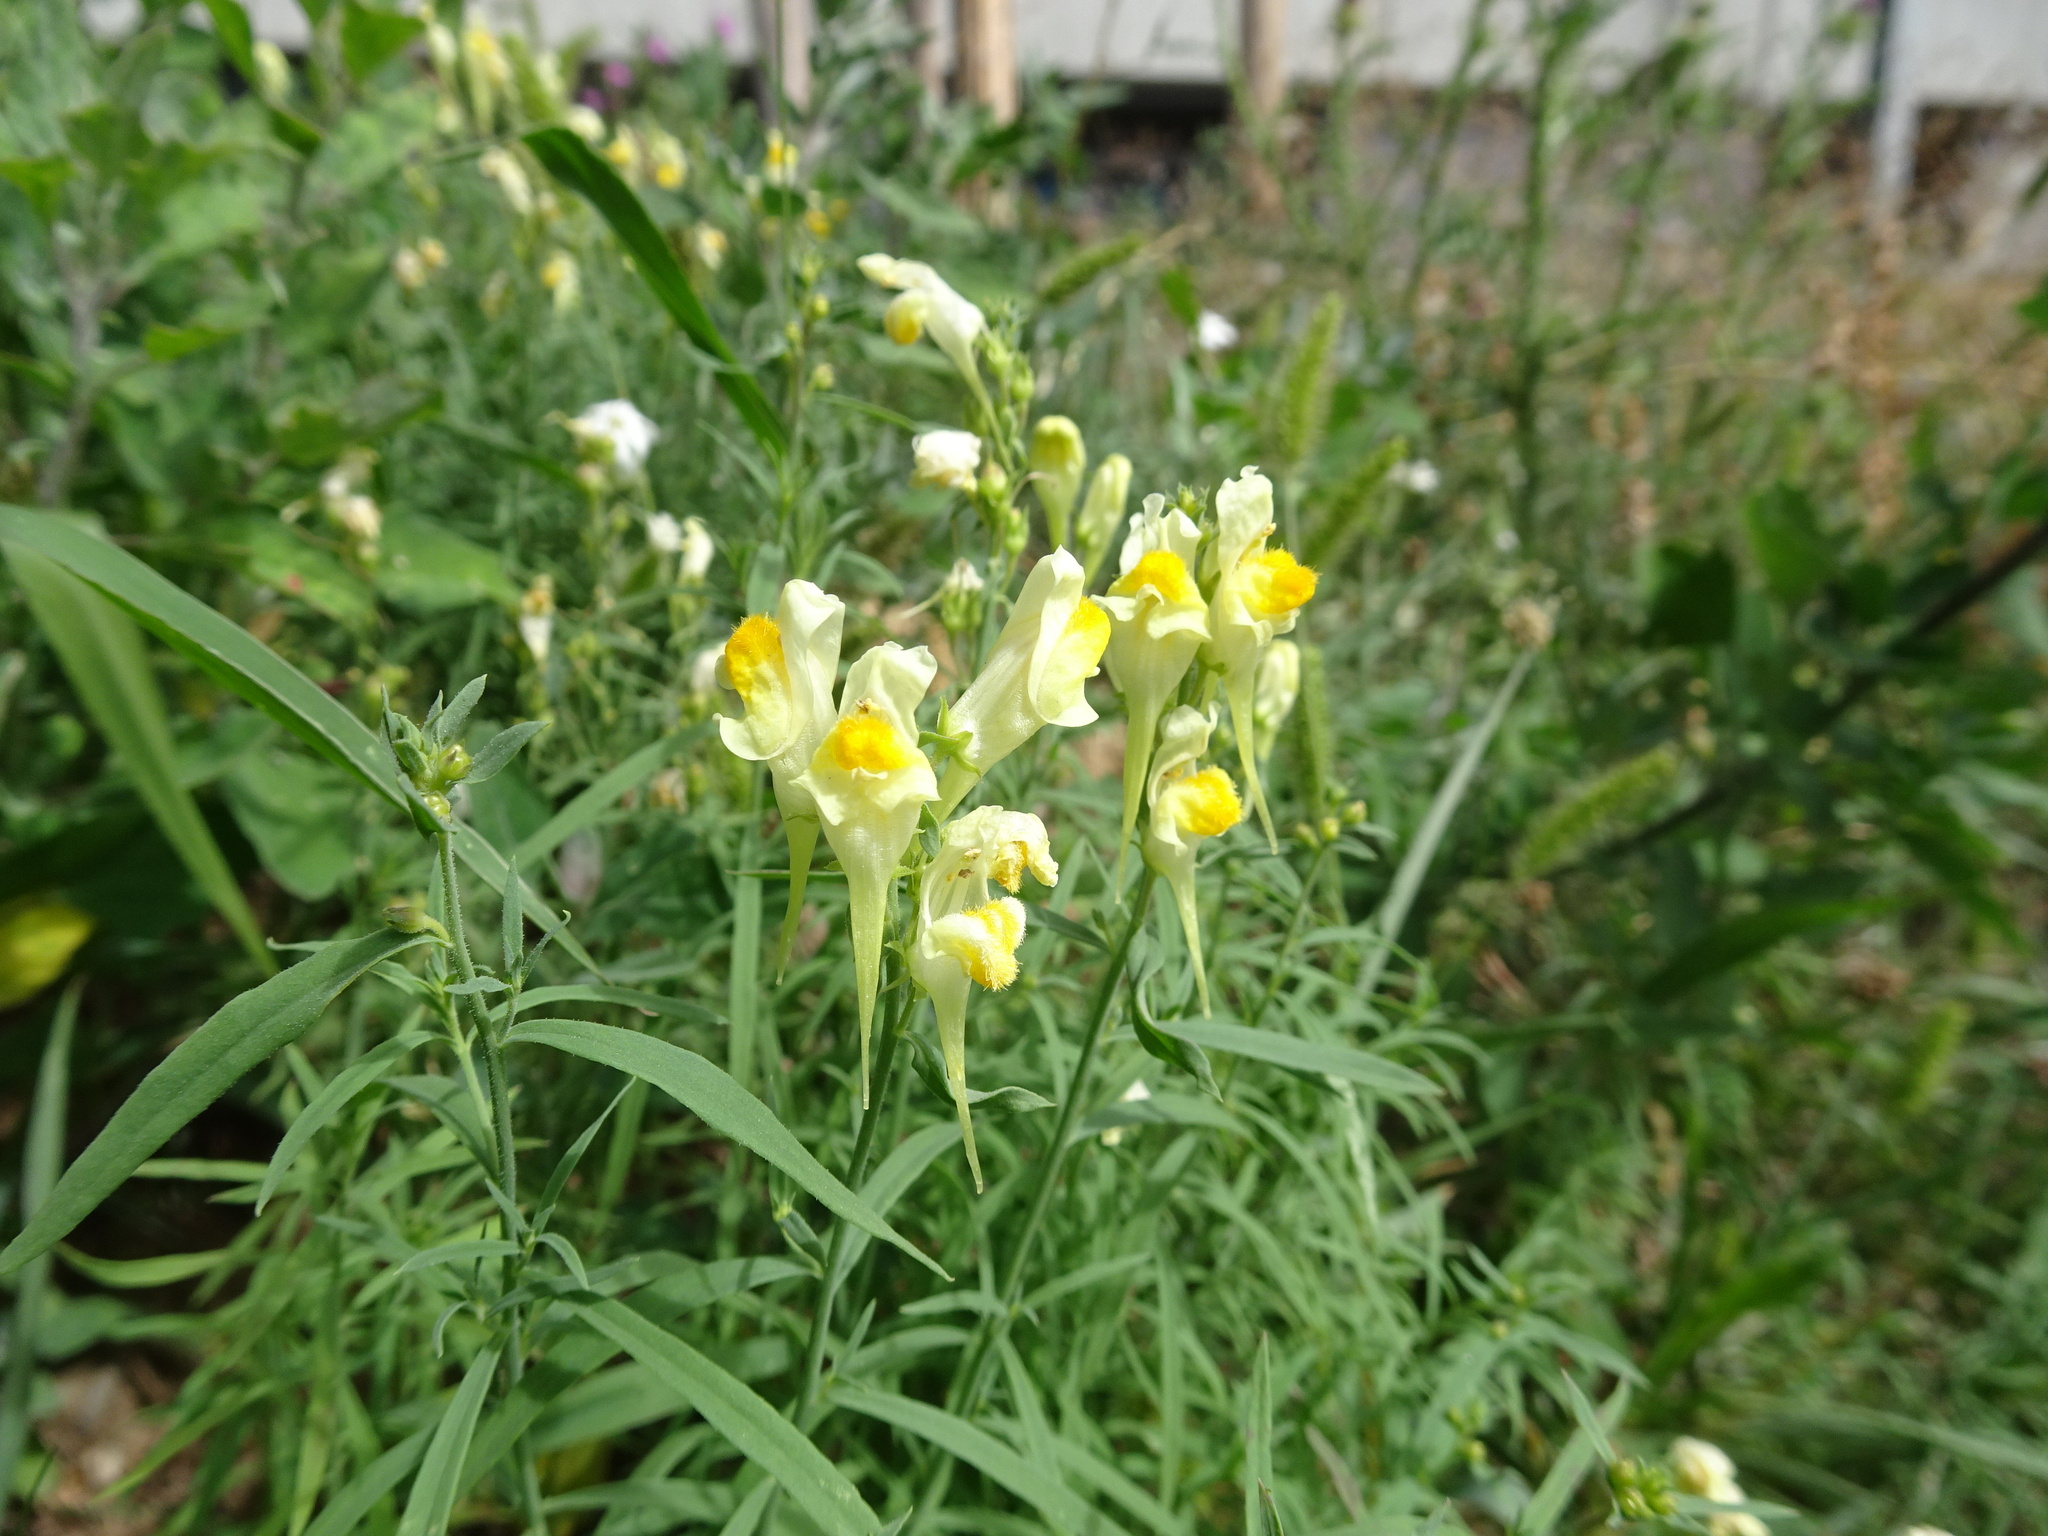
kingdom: Plantae
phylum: Tracheophyta
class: Magnoliopsida
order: Lamiales
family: Plantaginaceae
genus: Linaria
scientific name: Linaria vulgaris
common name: Butter and eggs
